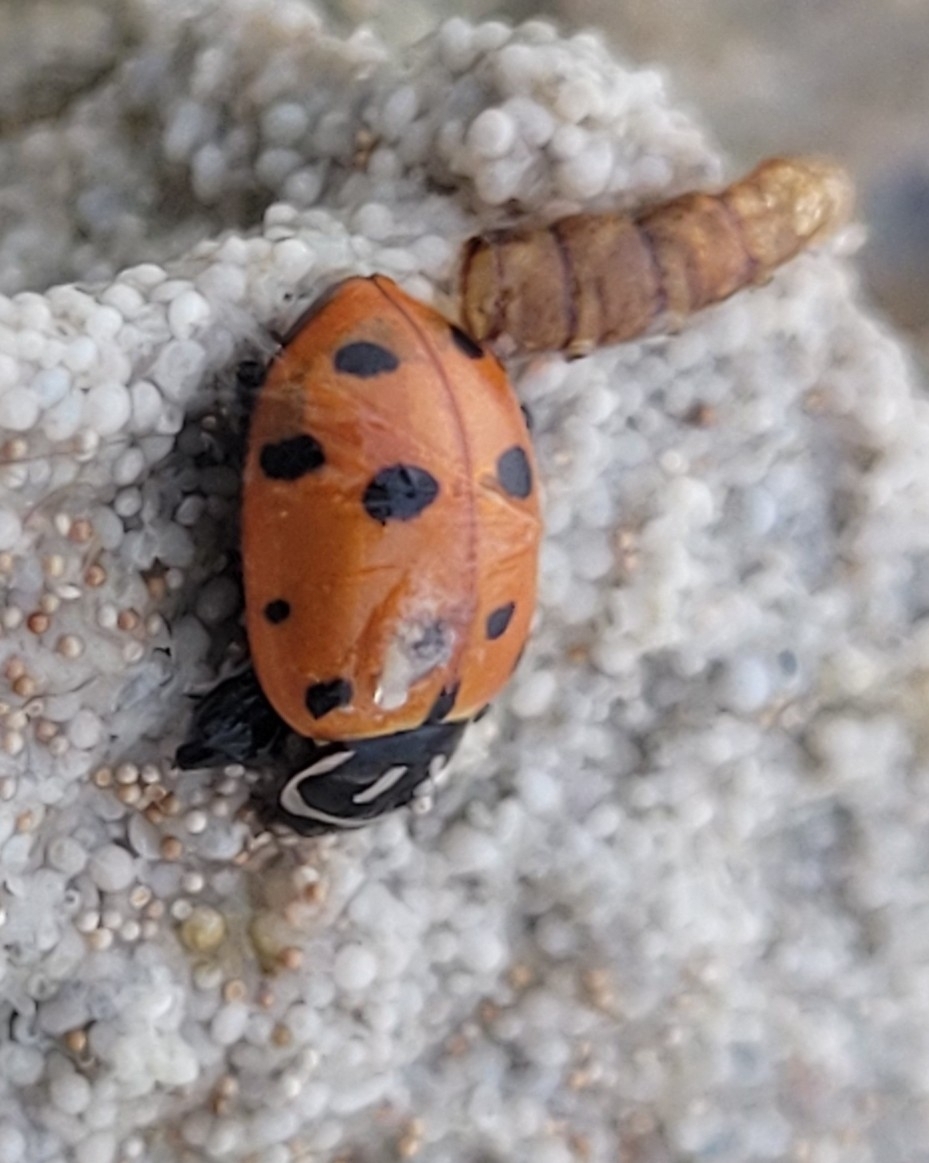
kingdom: Animalia
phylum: Arthropoda
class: Insecta
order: Coleoptera
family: Coccinellidae
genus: Hippodamia
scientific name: Hippodamia convergens
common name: Convergent lady beetle
